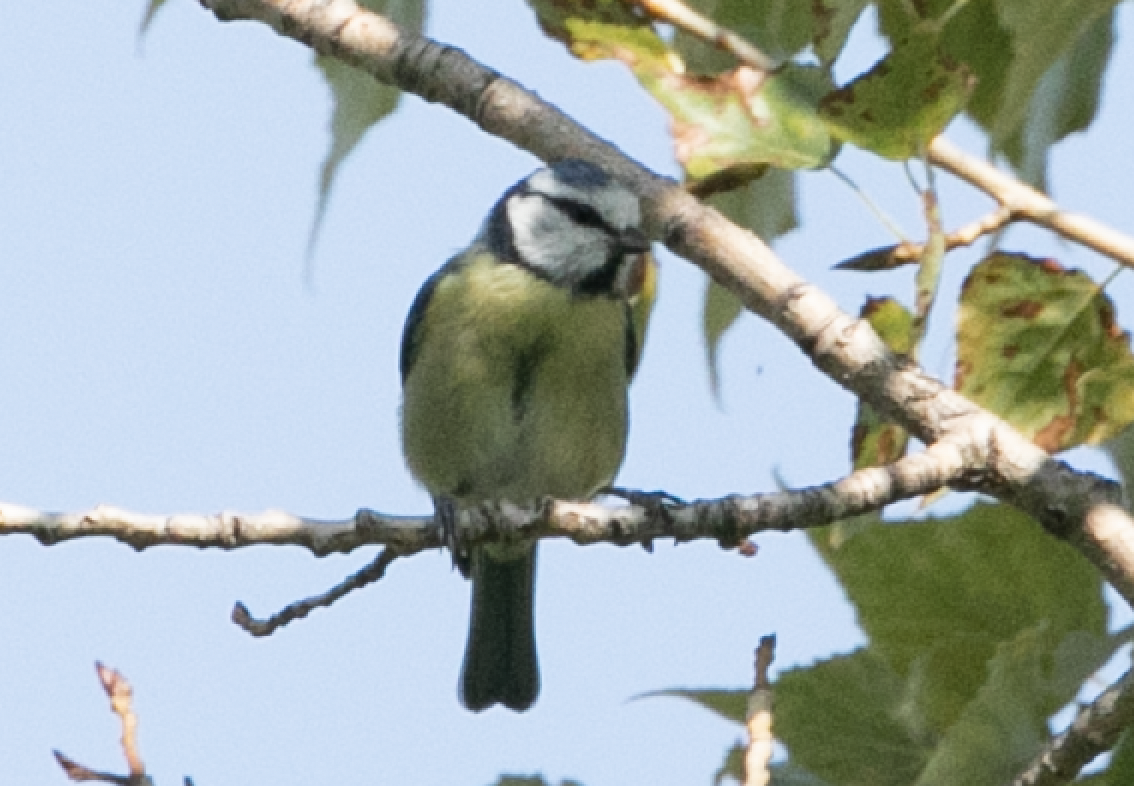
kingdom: Animalia
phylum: Chordata
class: Aves
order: Passeriformes
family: Paridae
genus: Cyanistes
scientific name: Cyanistes caeruleus
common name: Eurasian blue tit
